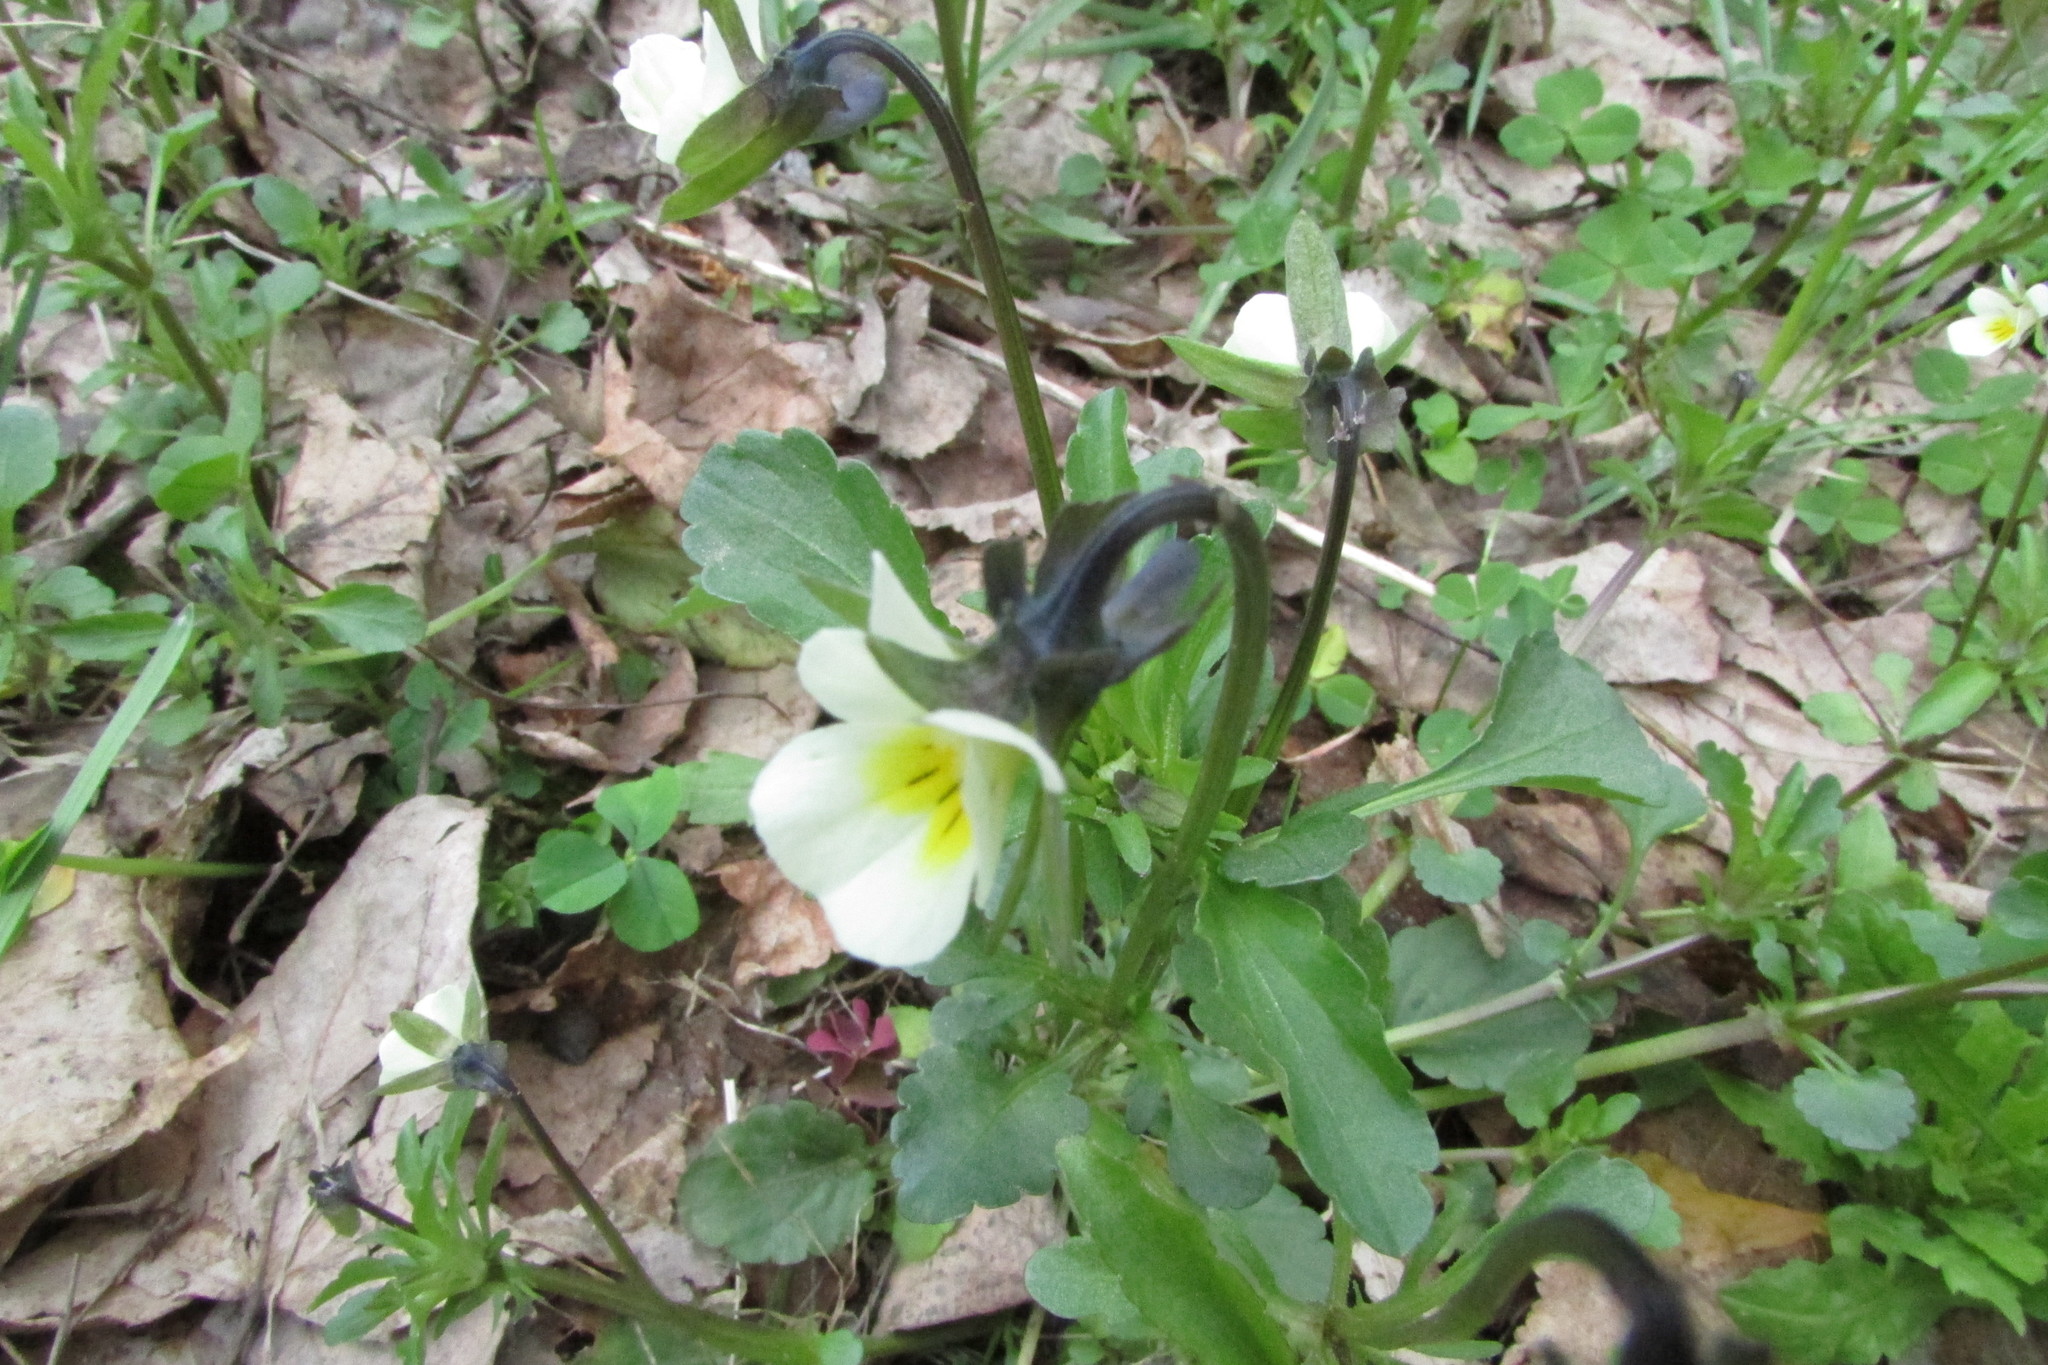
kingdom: Plantae
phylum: Tracheophyta
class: Magnoliopsida
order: Malpighiales
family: Violaceae
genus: Viola
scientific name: Viola arvensis
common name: Field pansy
